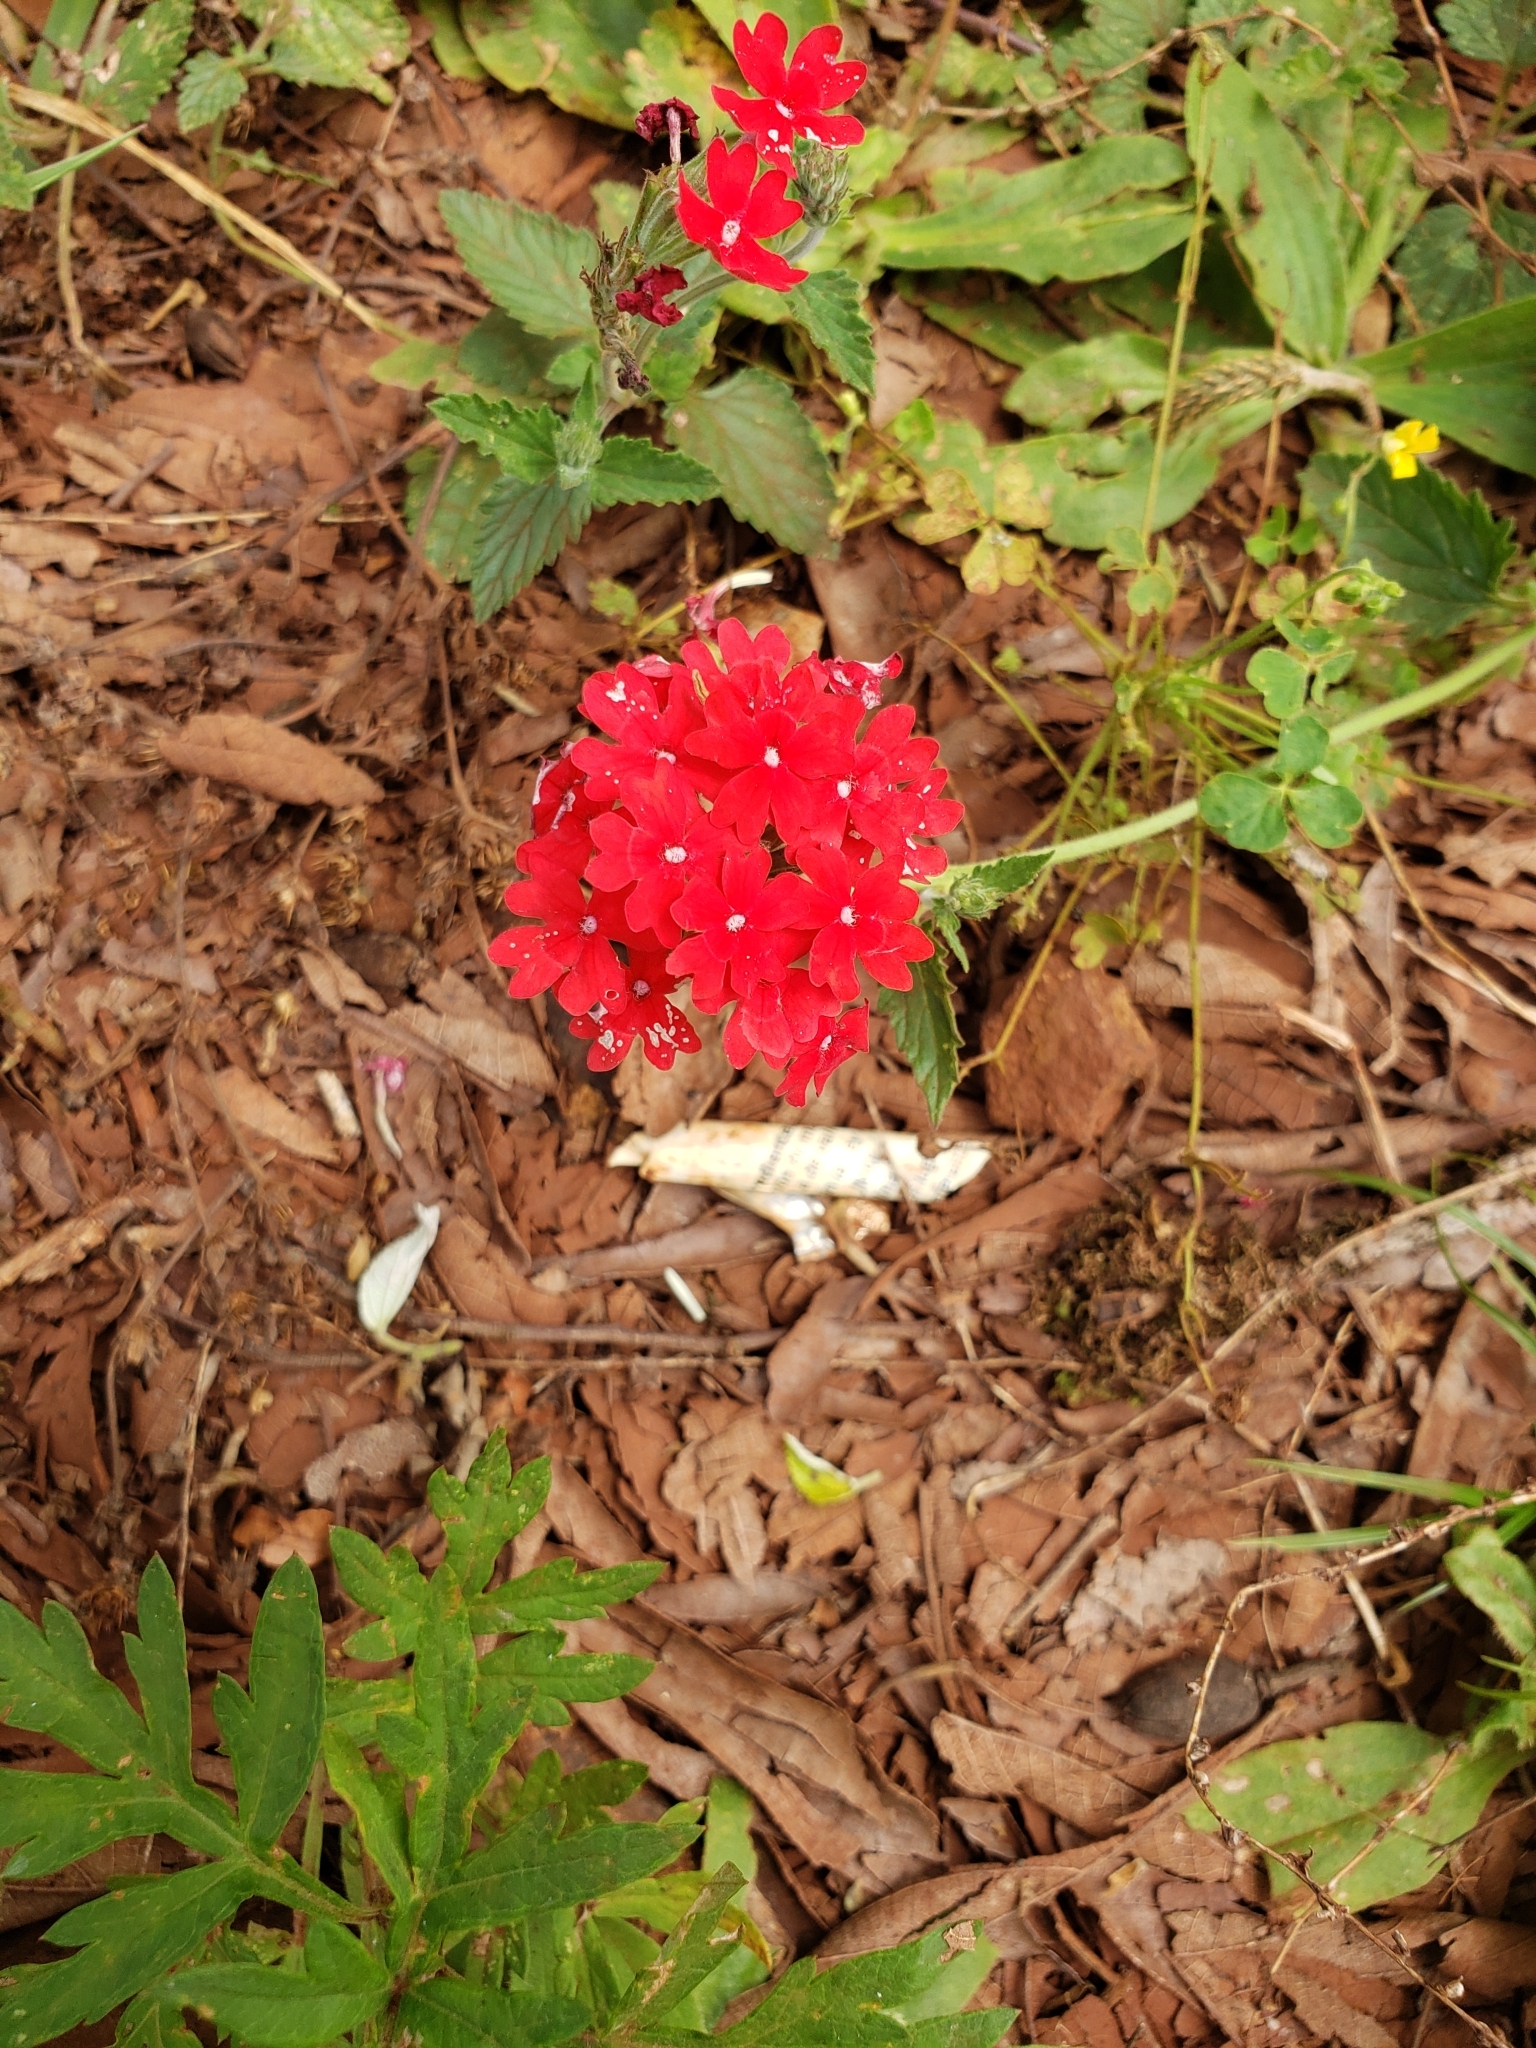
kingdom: Plantae
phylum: Tracheophyta
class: Magnoliopsida
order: Lamiales
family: Verbenaceae
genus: Verbena
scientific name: Verbena tweedieana
